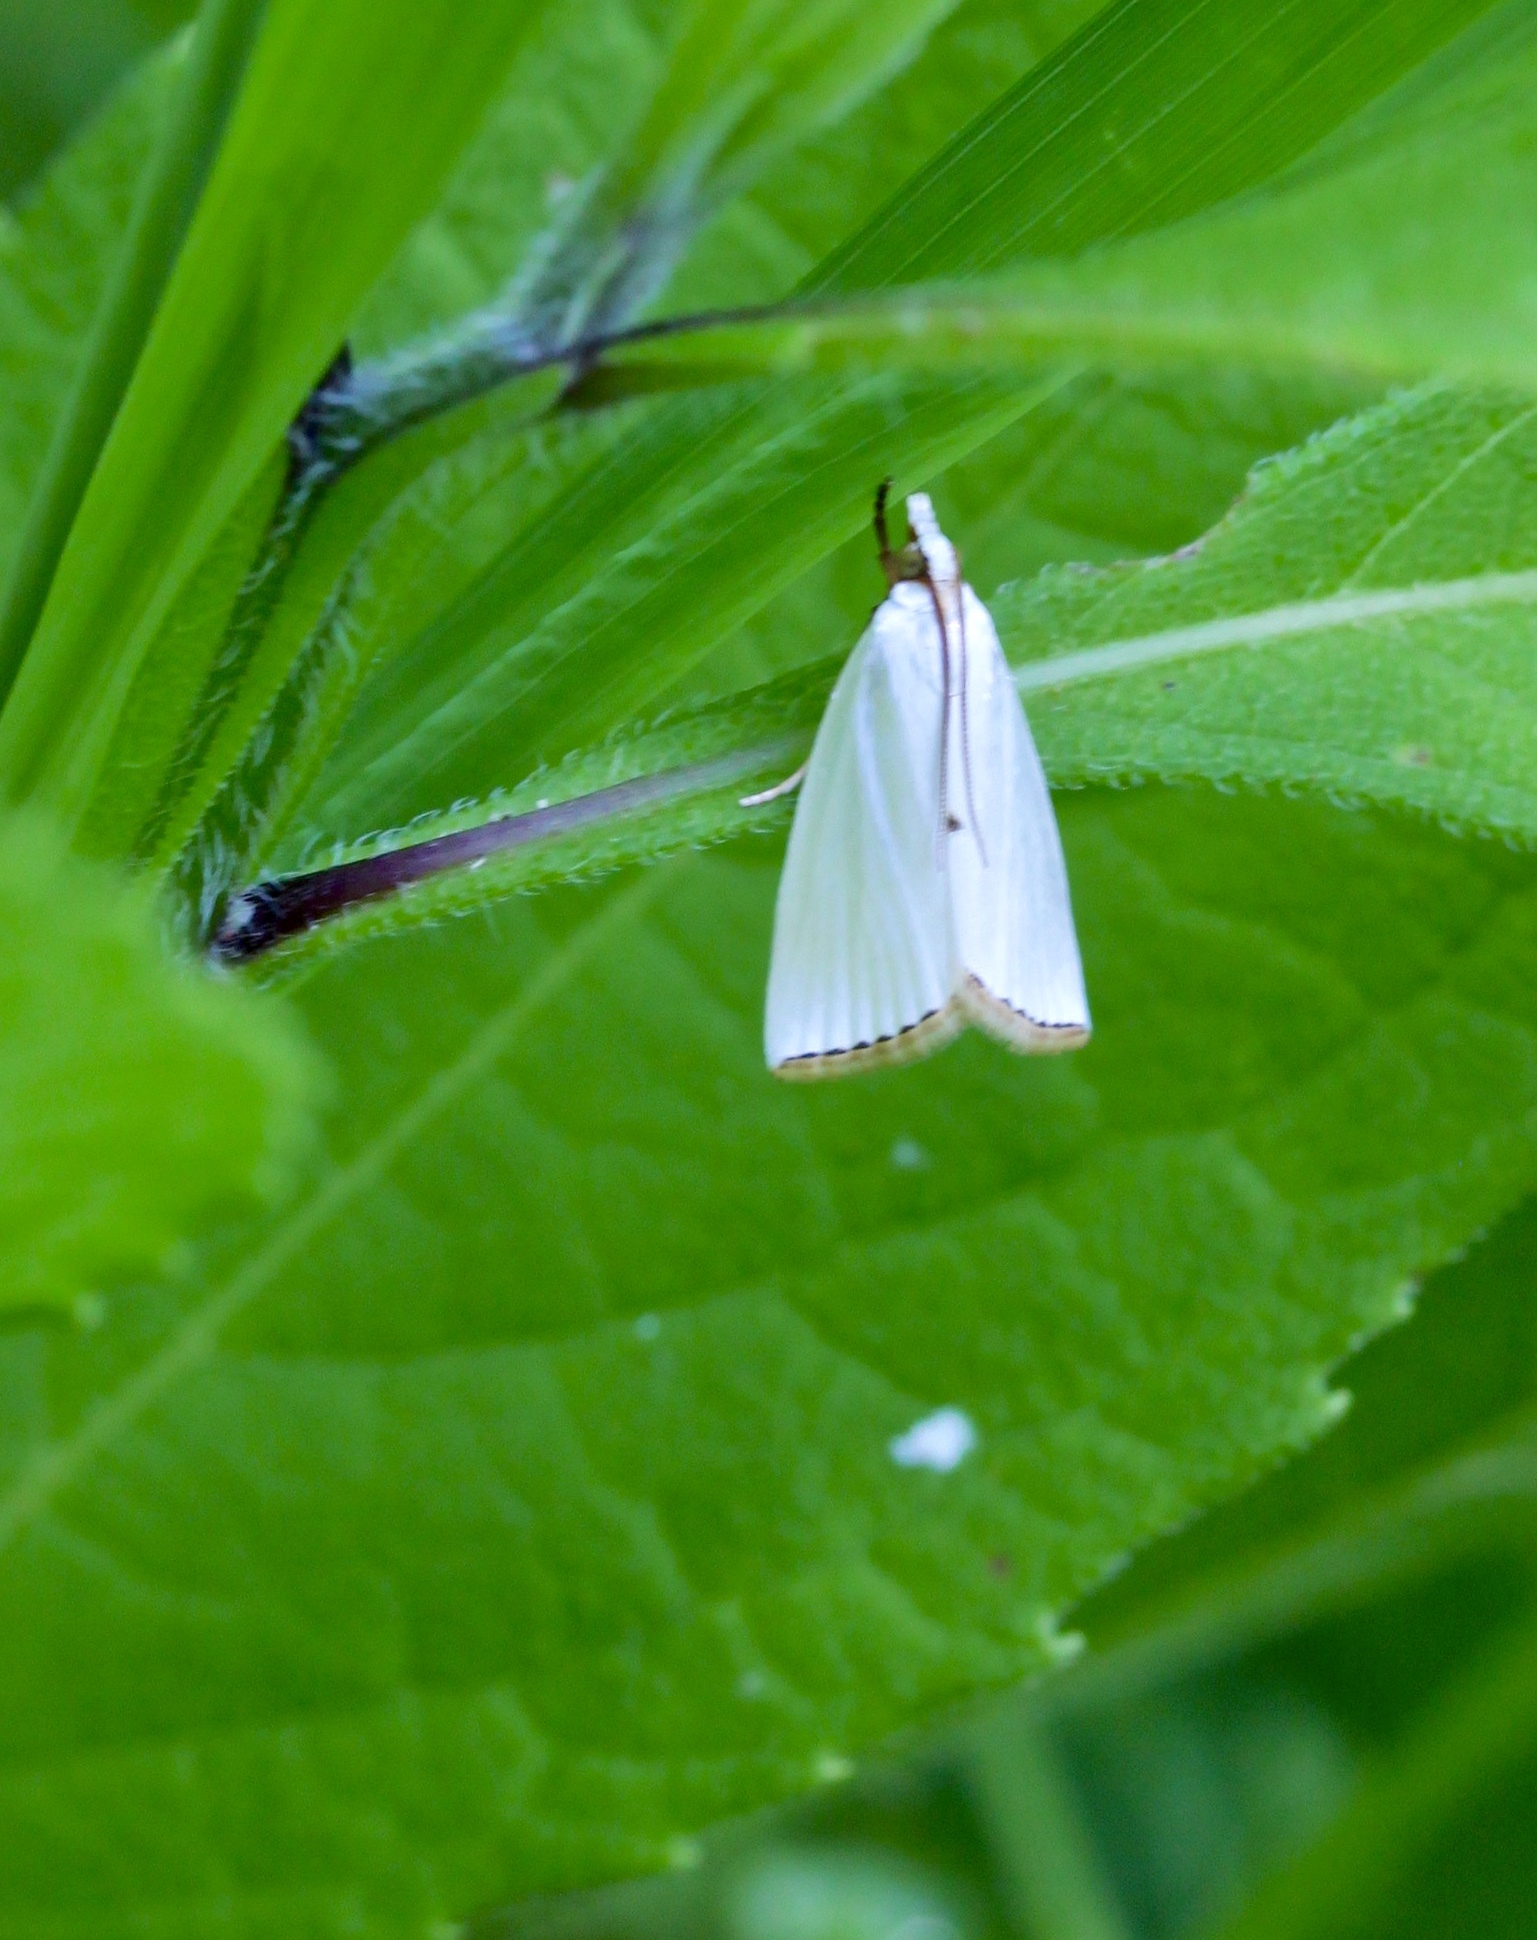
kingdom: Animalia
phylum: Arthropoda
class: Insecta
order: Lepidoptera
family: Crambidae
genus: Argyria
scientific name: Argyria nivalis
